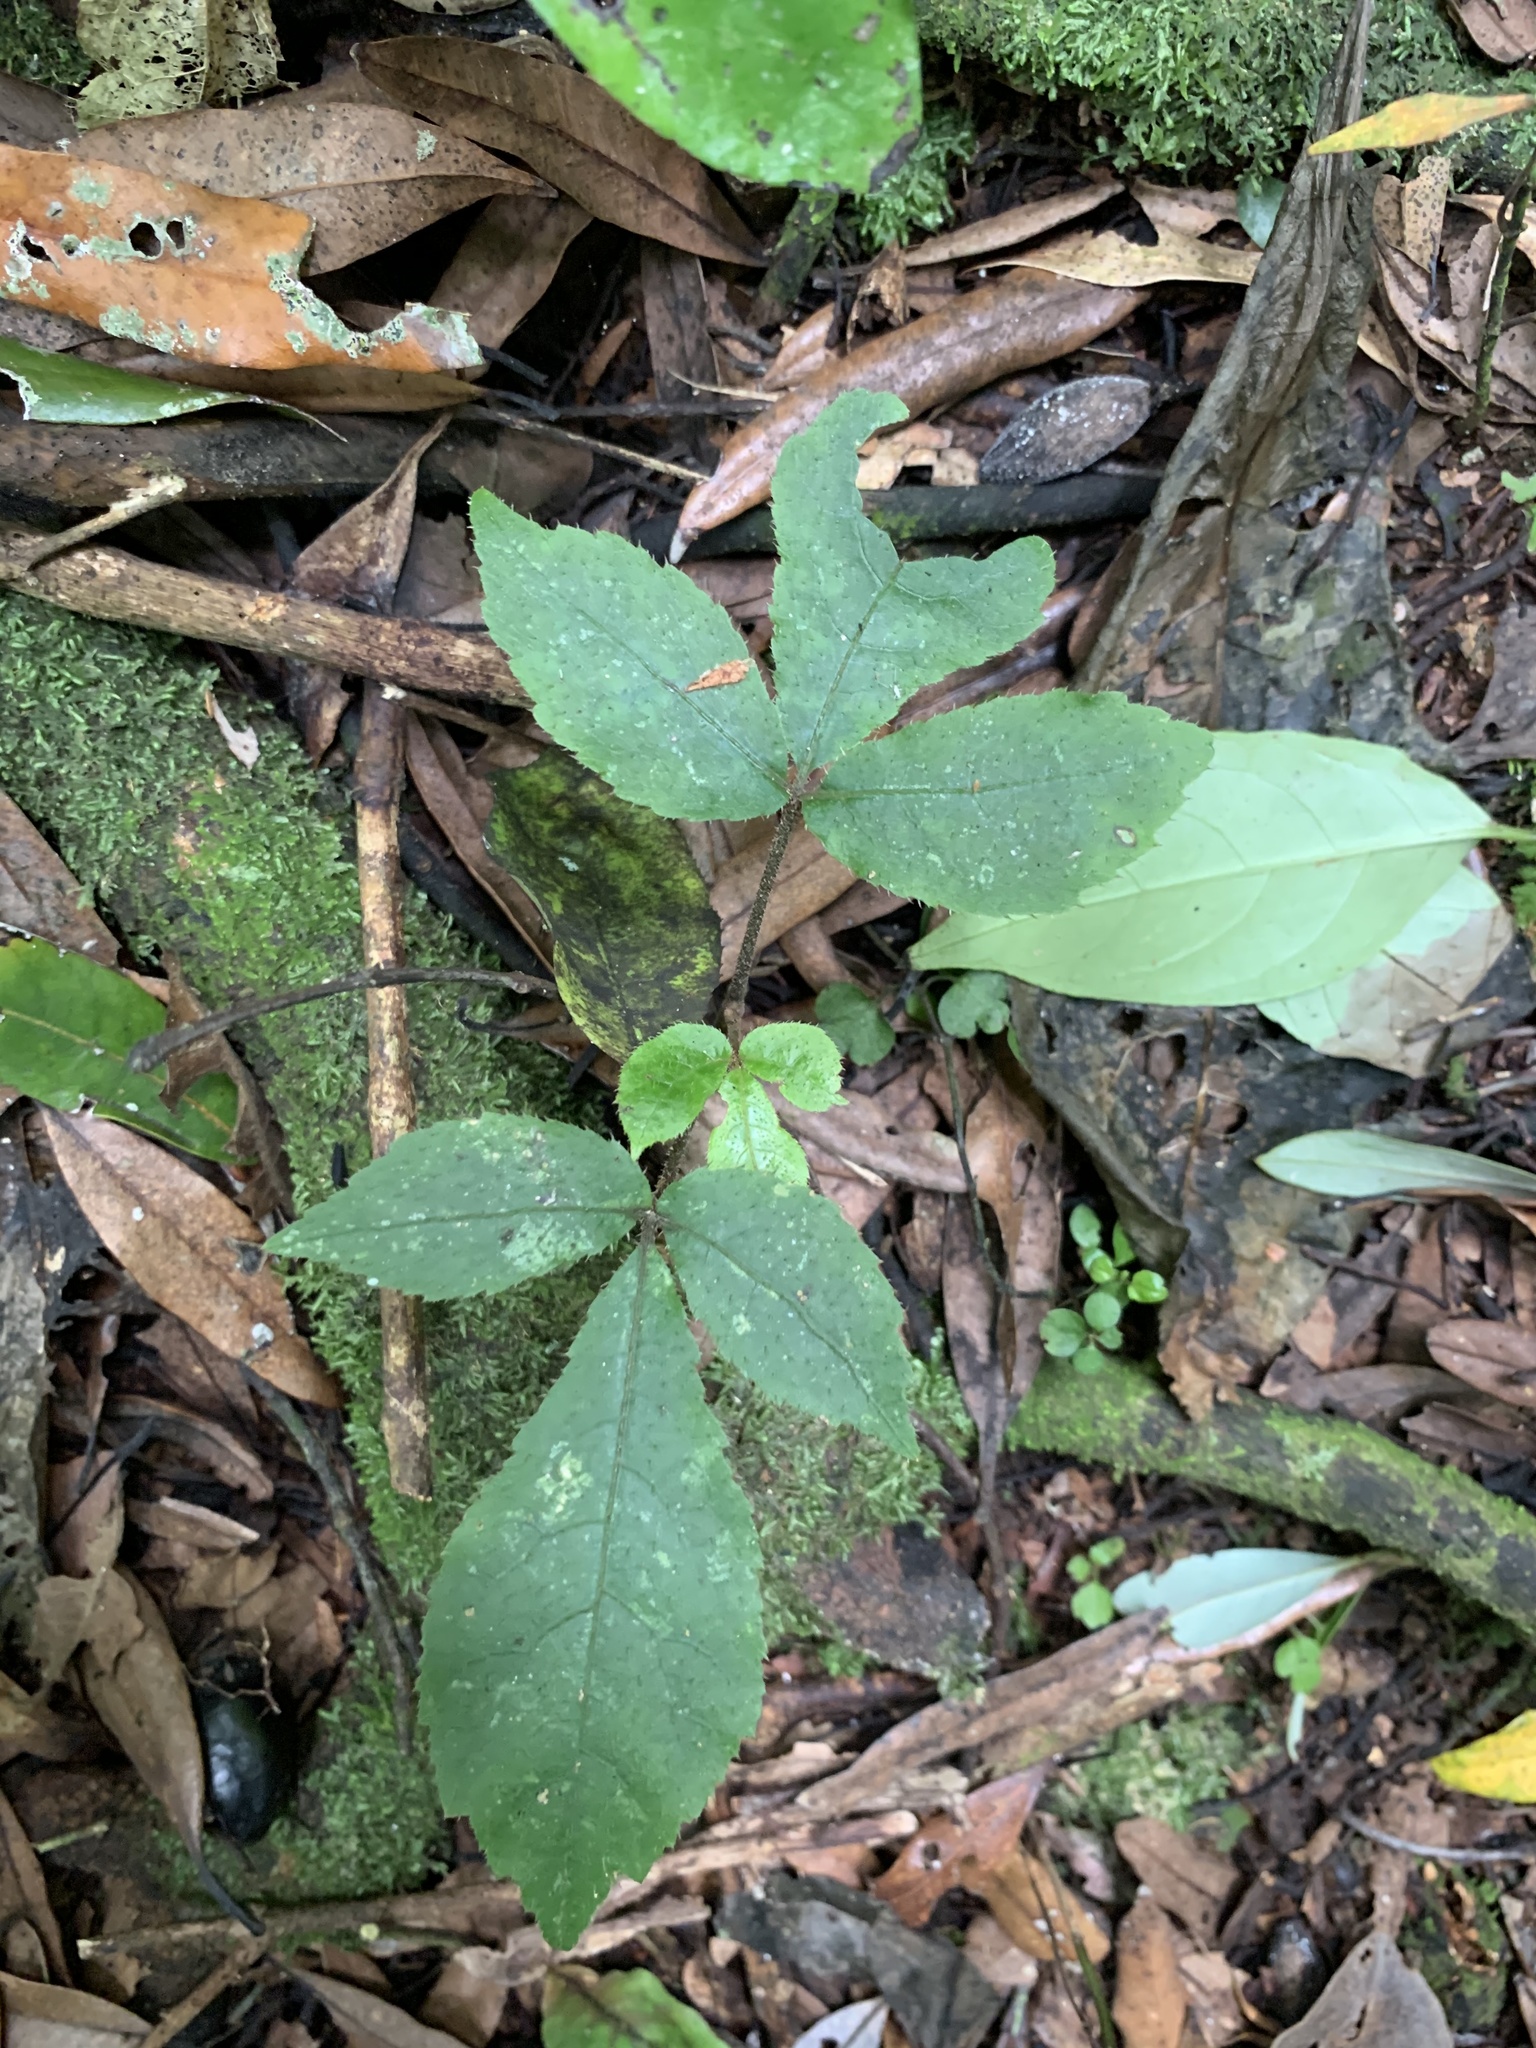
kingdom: Plantae
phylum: Tracheophyta
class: Magnoliopsida
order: Apiales
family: Araliaceae
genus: Schefflera
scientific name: Schefflera digitata
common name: Pate
